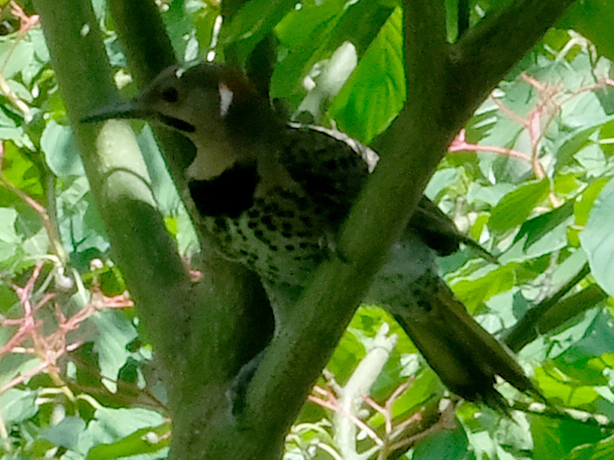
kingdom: Animalia
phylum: Chordata
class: Aves
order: Piciformes
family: Picidae
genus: Colaptes
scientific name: Colaptes auratus
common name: Northern flicker
